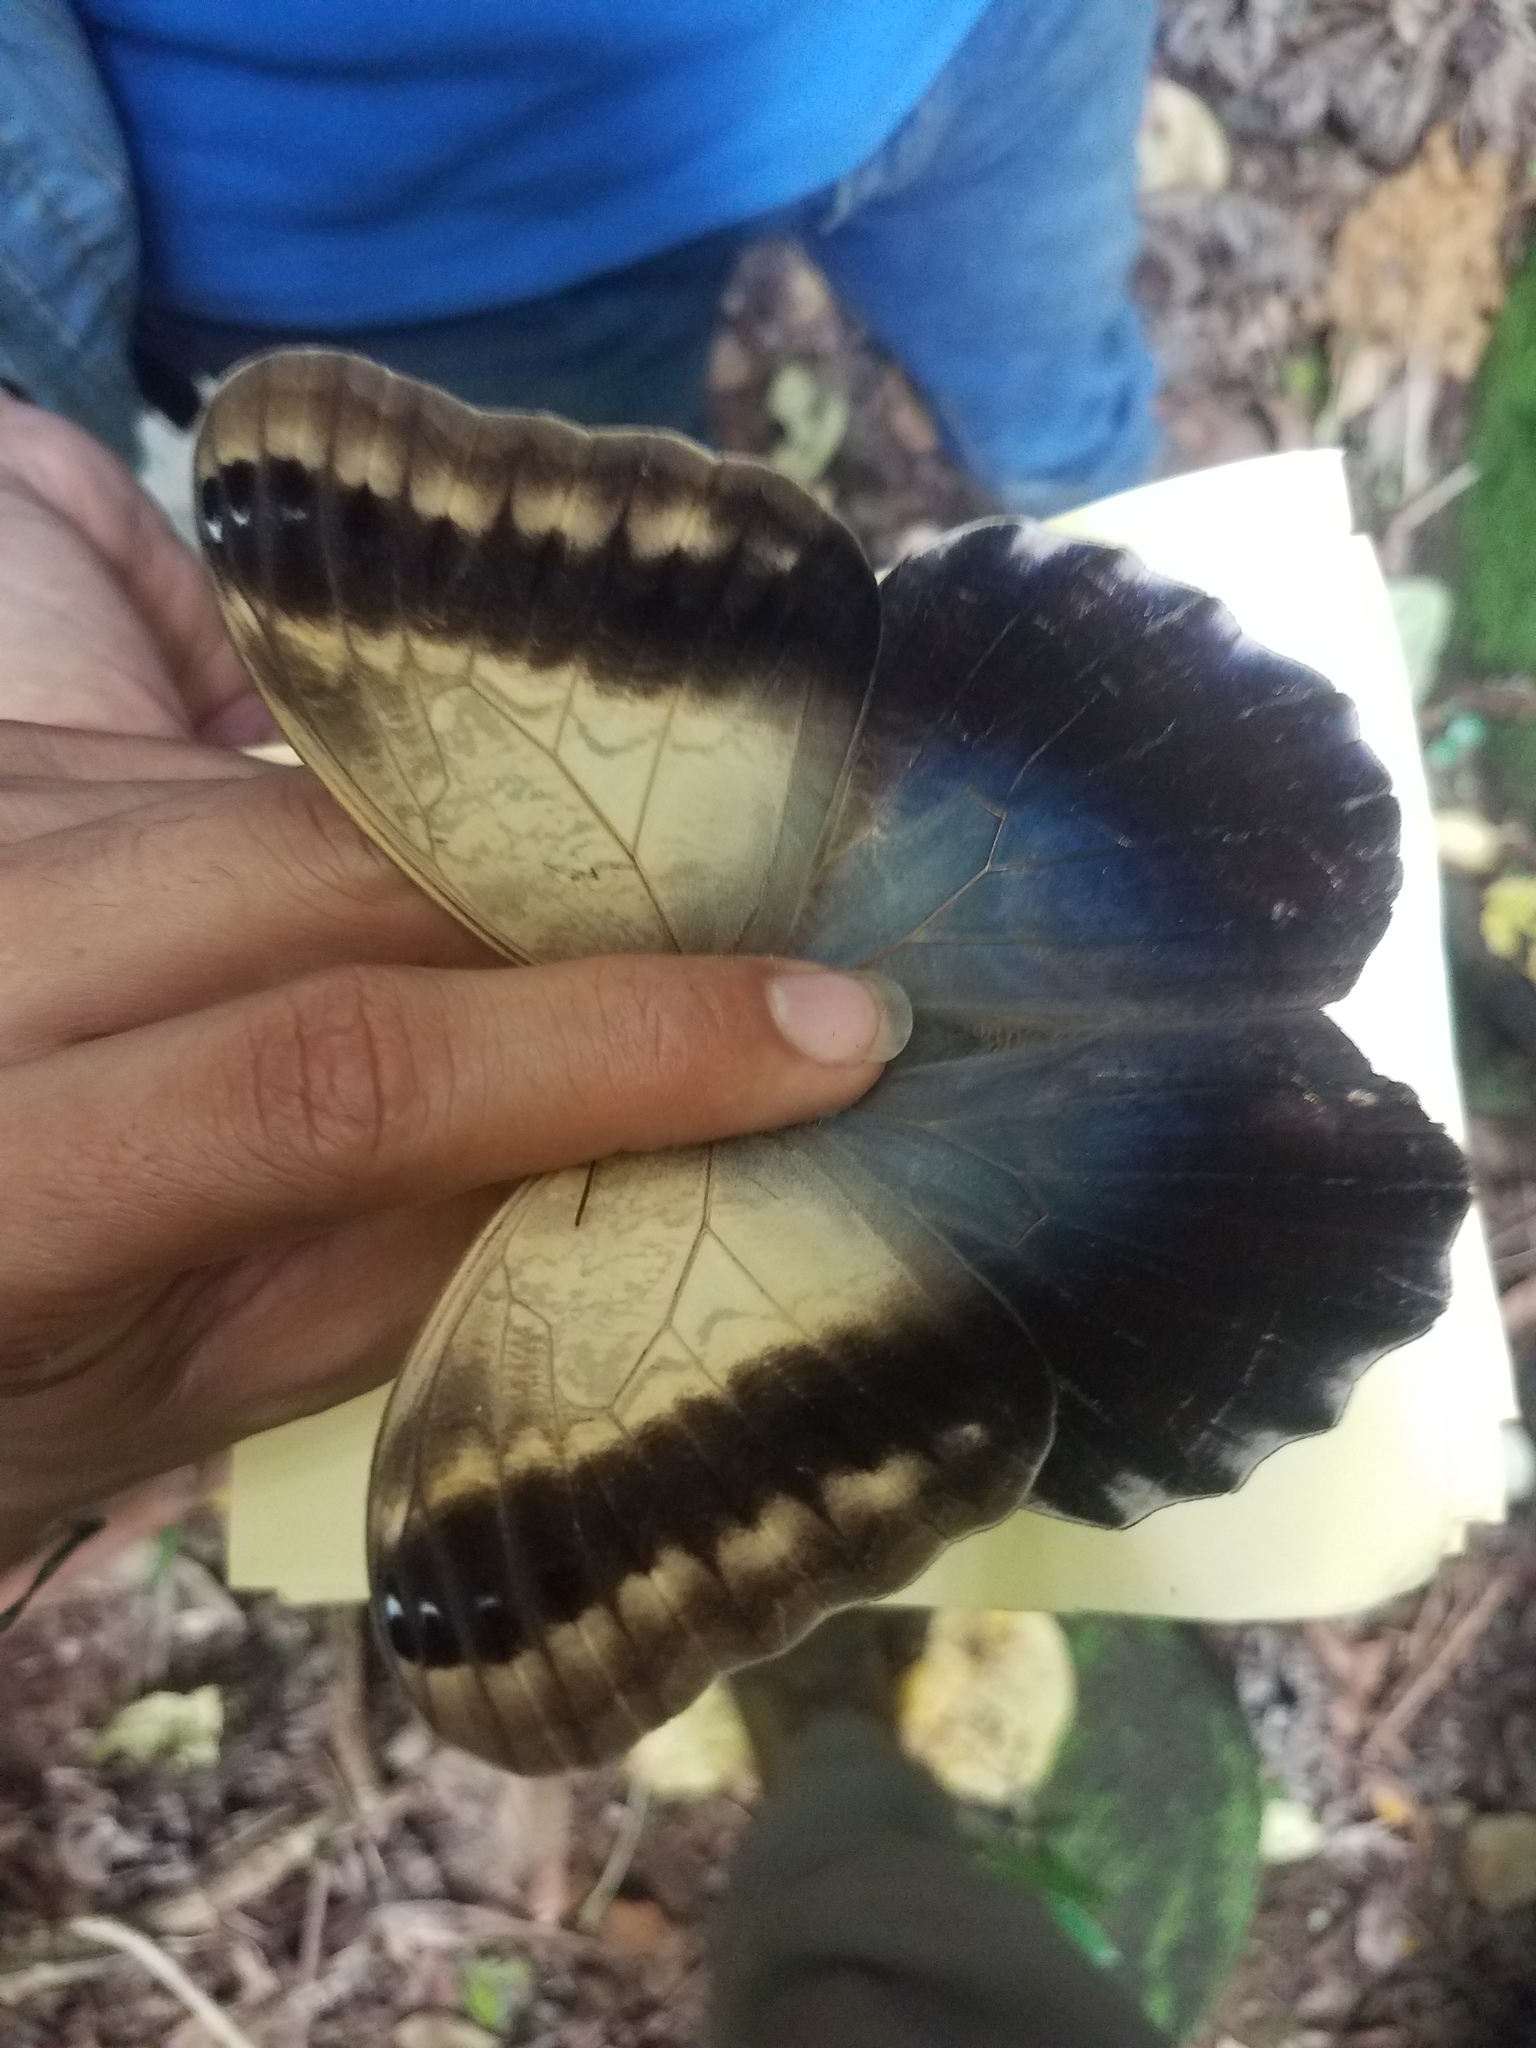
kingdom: Animalia
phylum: Arthropoda
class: Insecta
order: Lepidoptera
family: Nymphalidae
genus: Caligo
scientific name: Caligo telamonius
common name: Pale owl-butterfly
